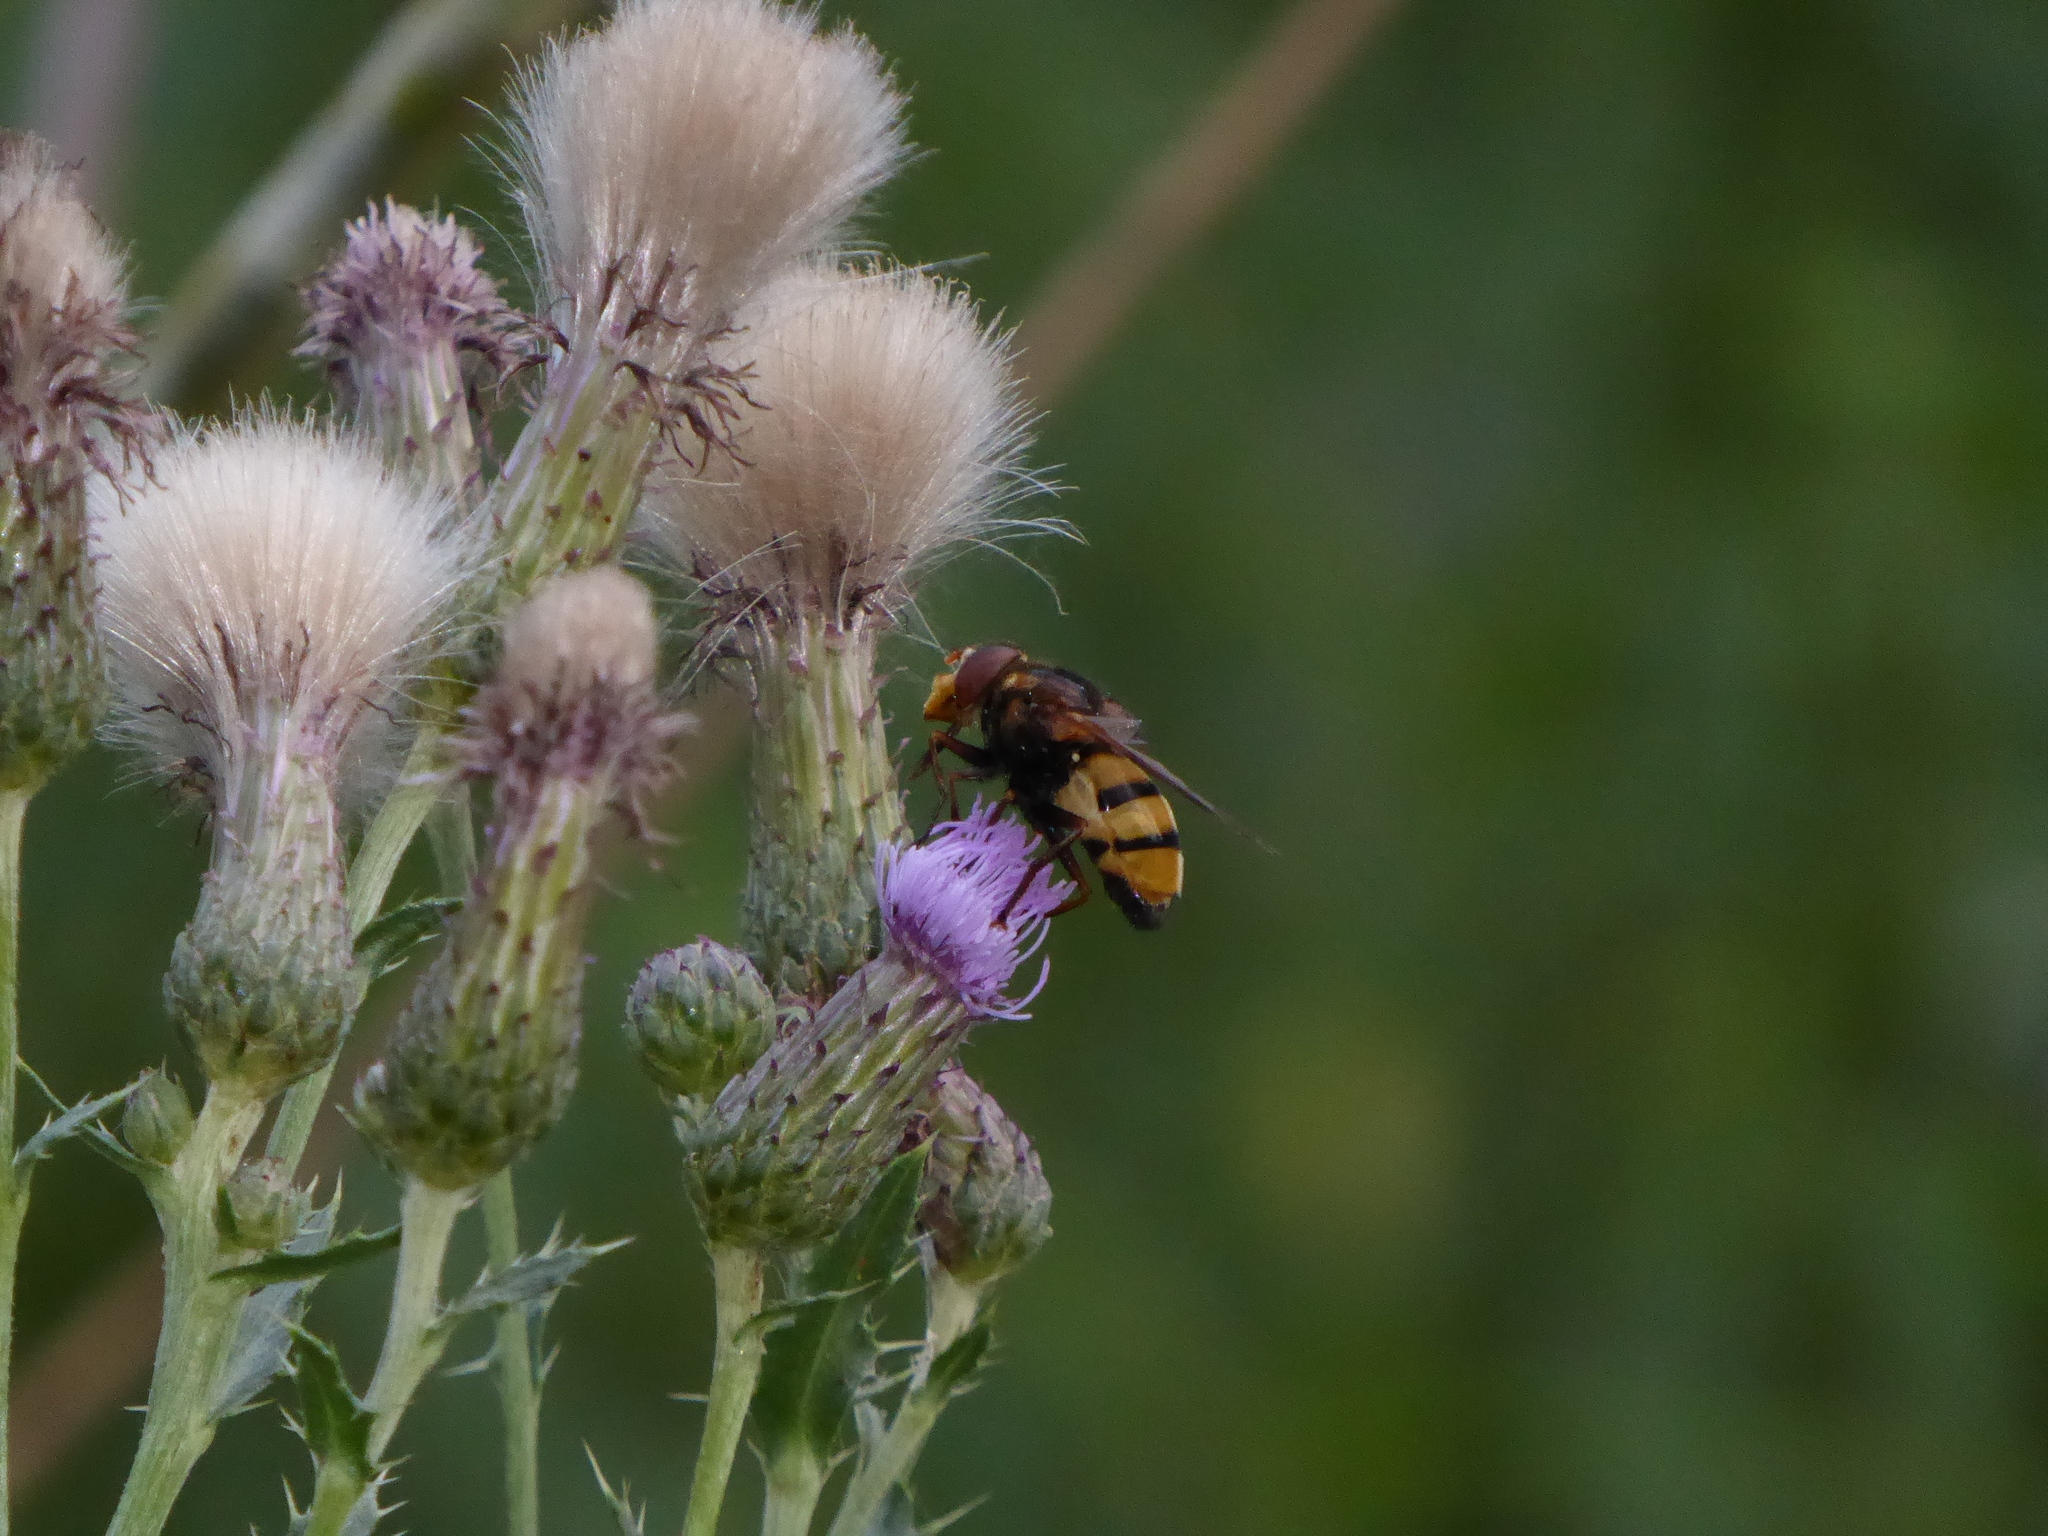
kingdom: Animalia
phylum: Arthropoda
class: Insecta
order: Diptera
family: Syrphidae
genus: Volucella
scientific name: Volucella inanis
